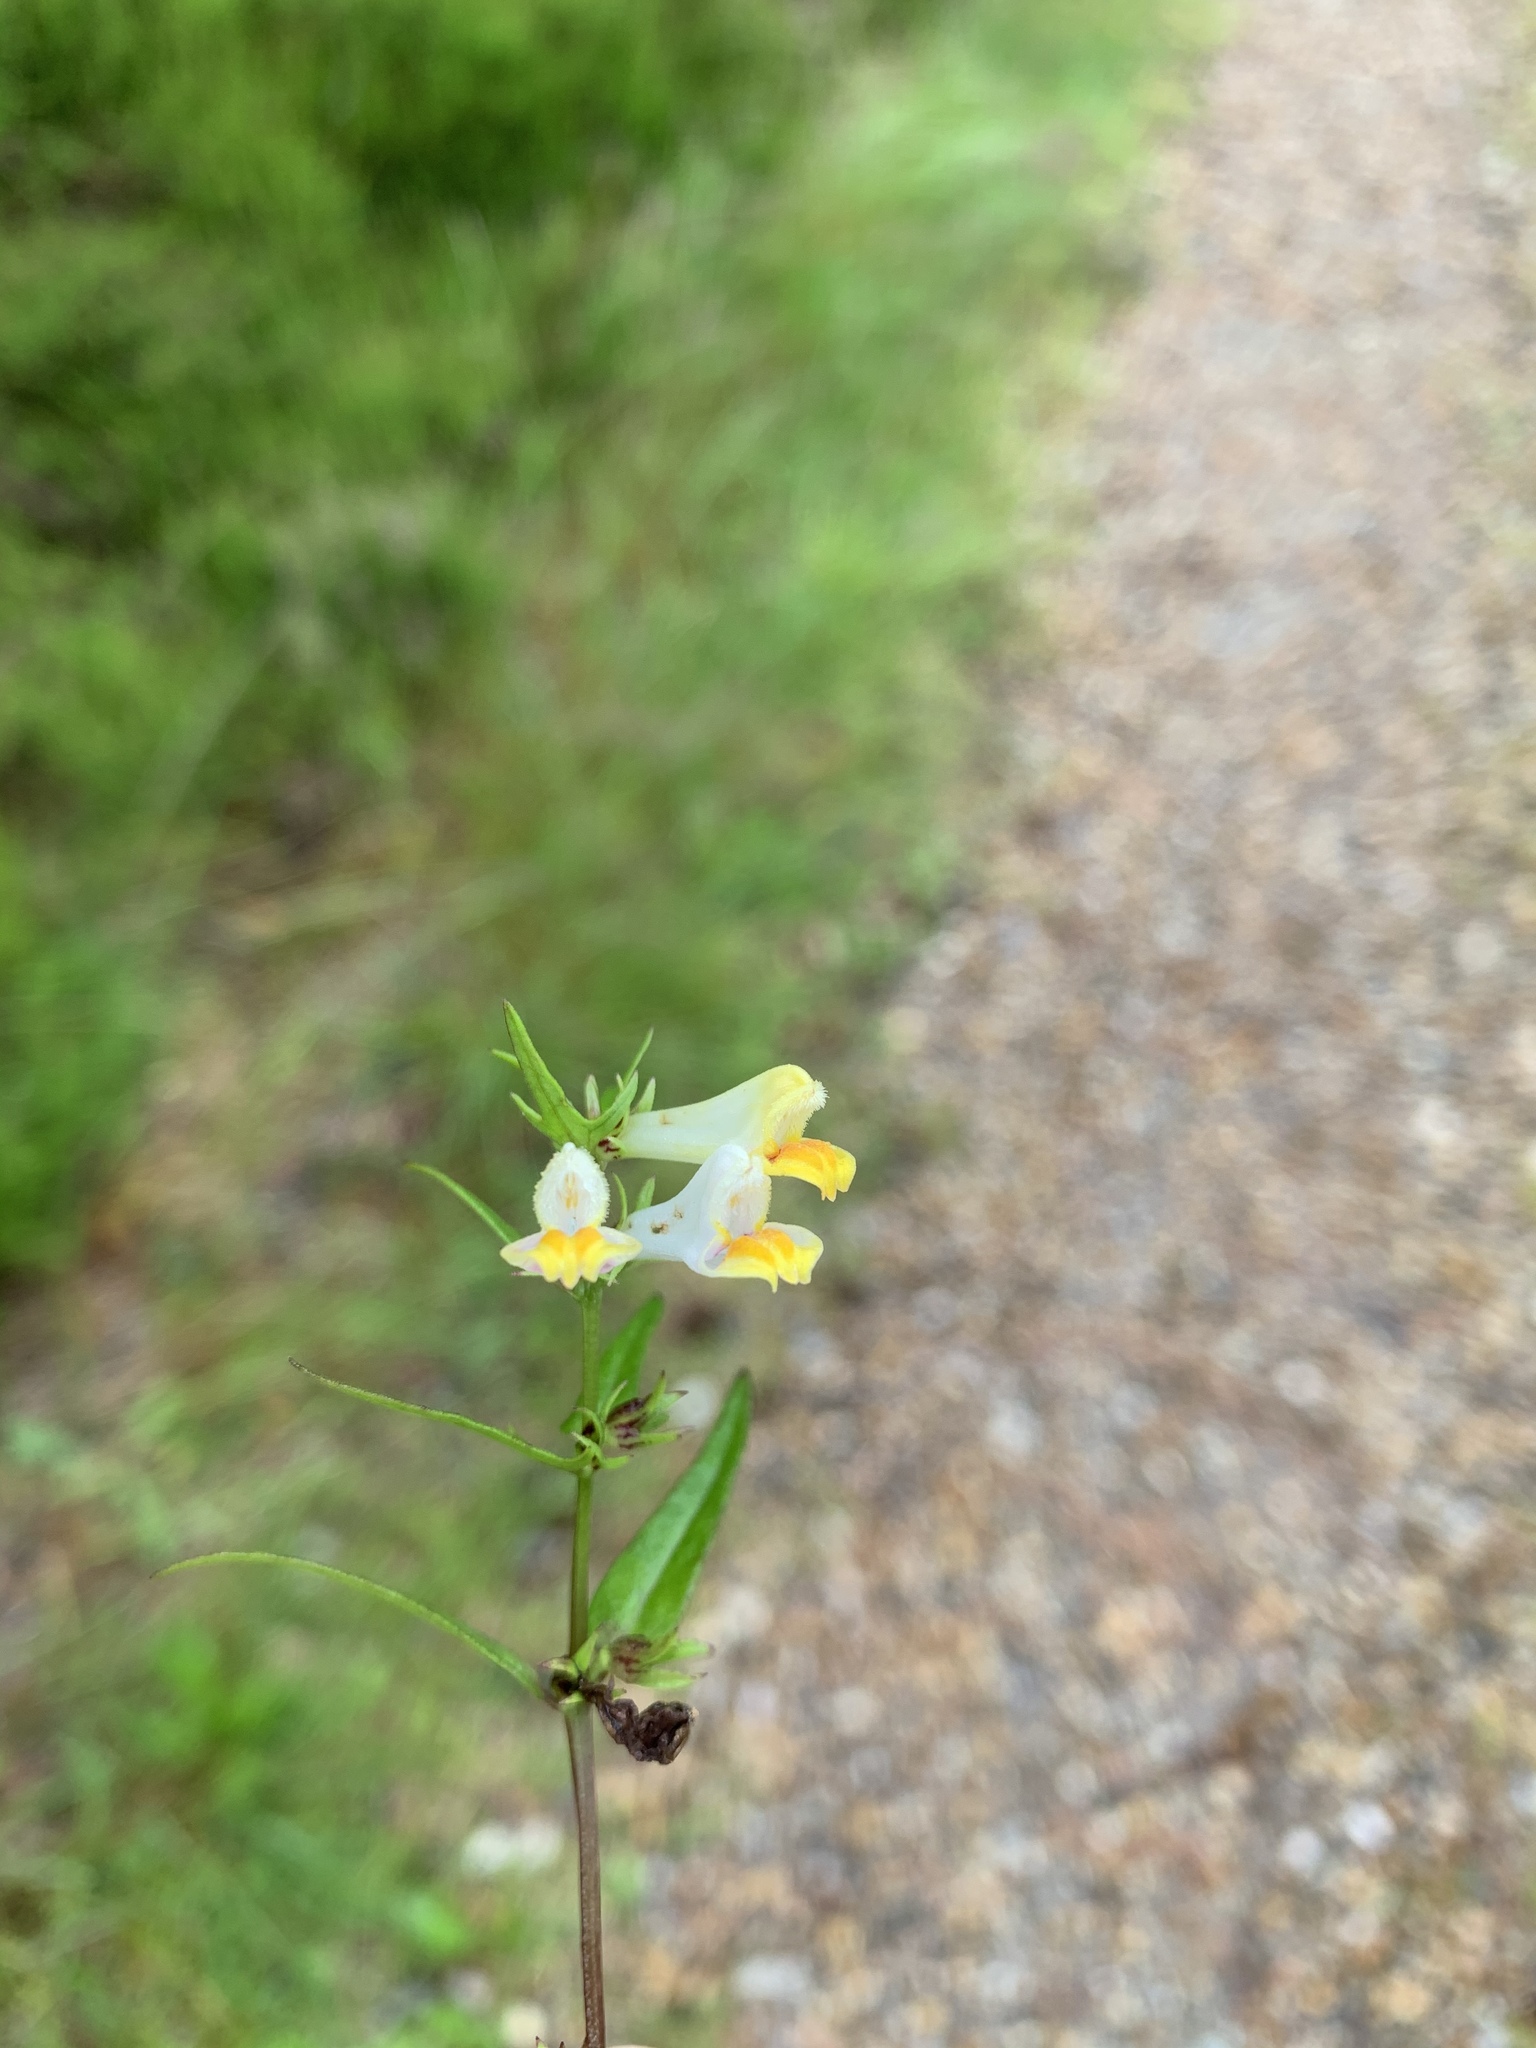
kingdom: Plantae
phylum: Tracheophyta
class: Magnoliopsida
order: Lamiales
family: Orobanchaceae
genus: Melampyrum
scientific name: Melampyrum pratense
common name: Common cow-wheat
